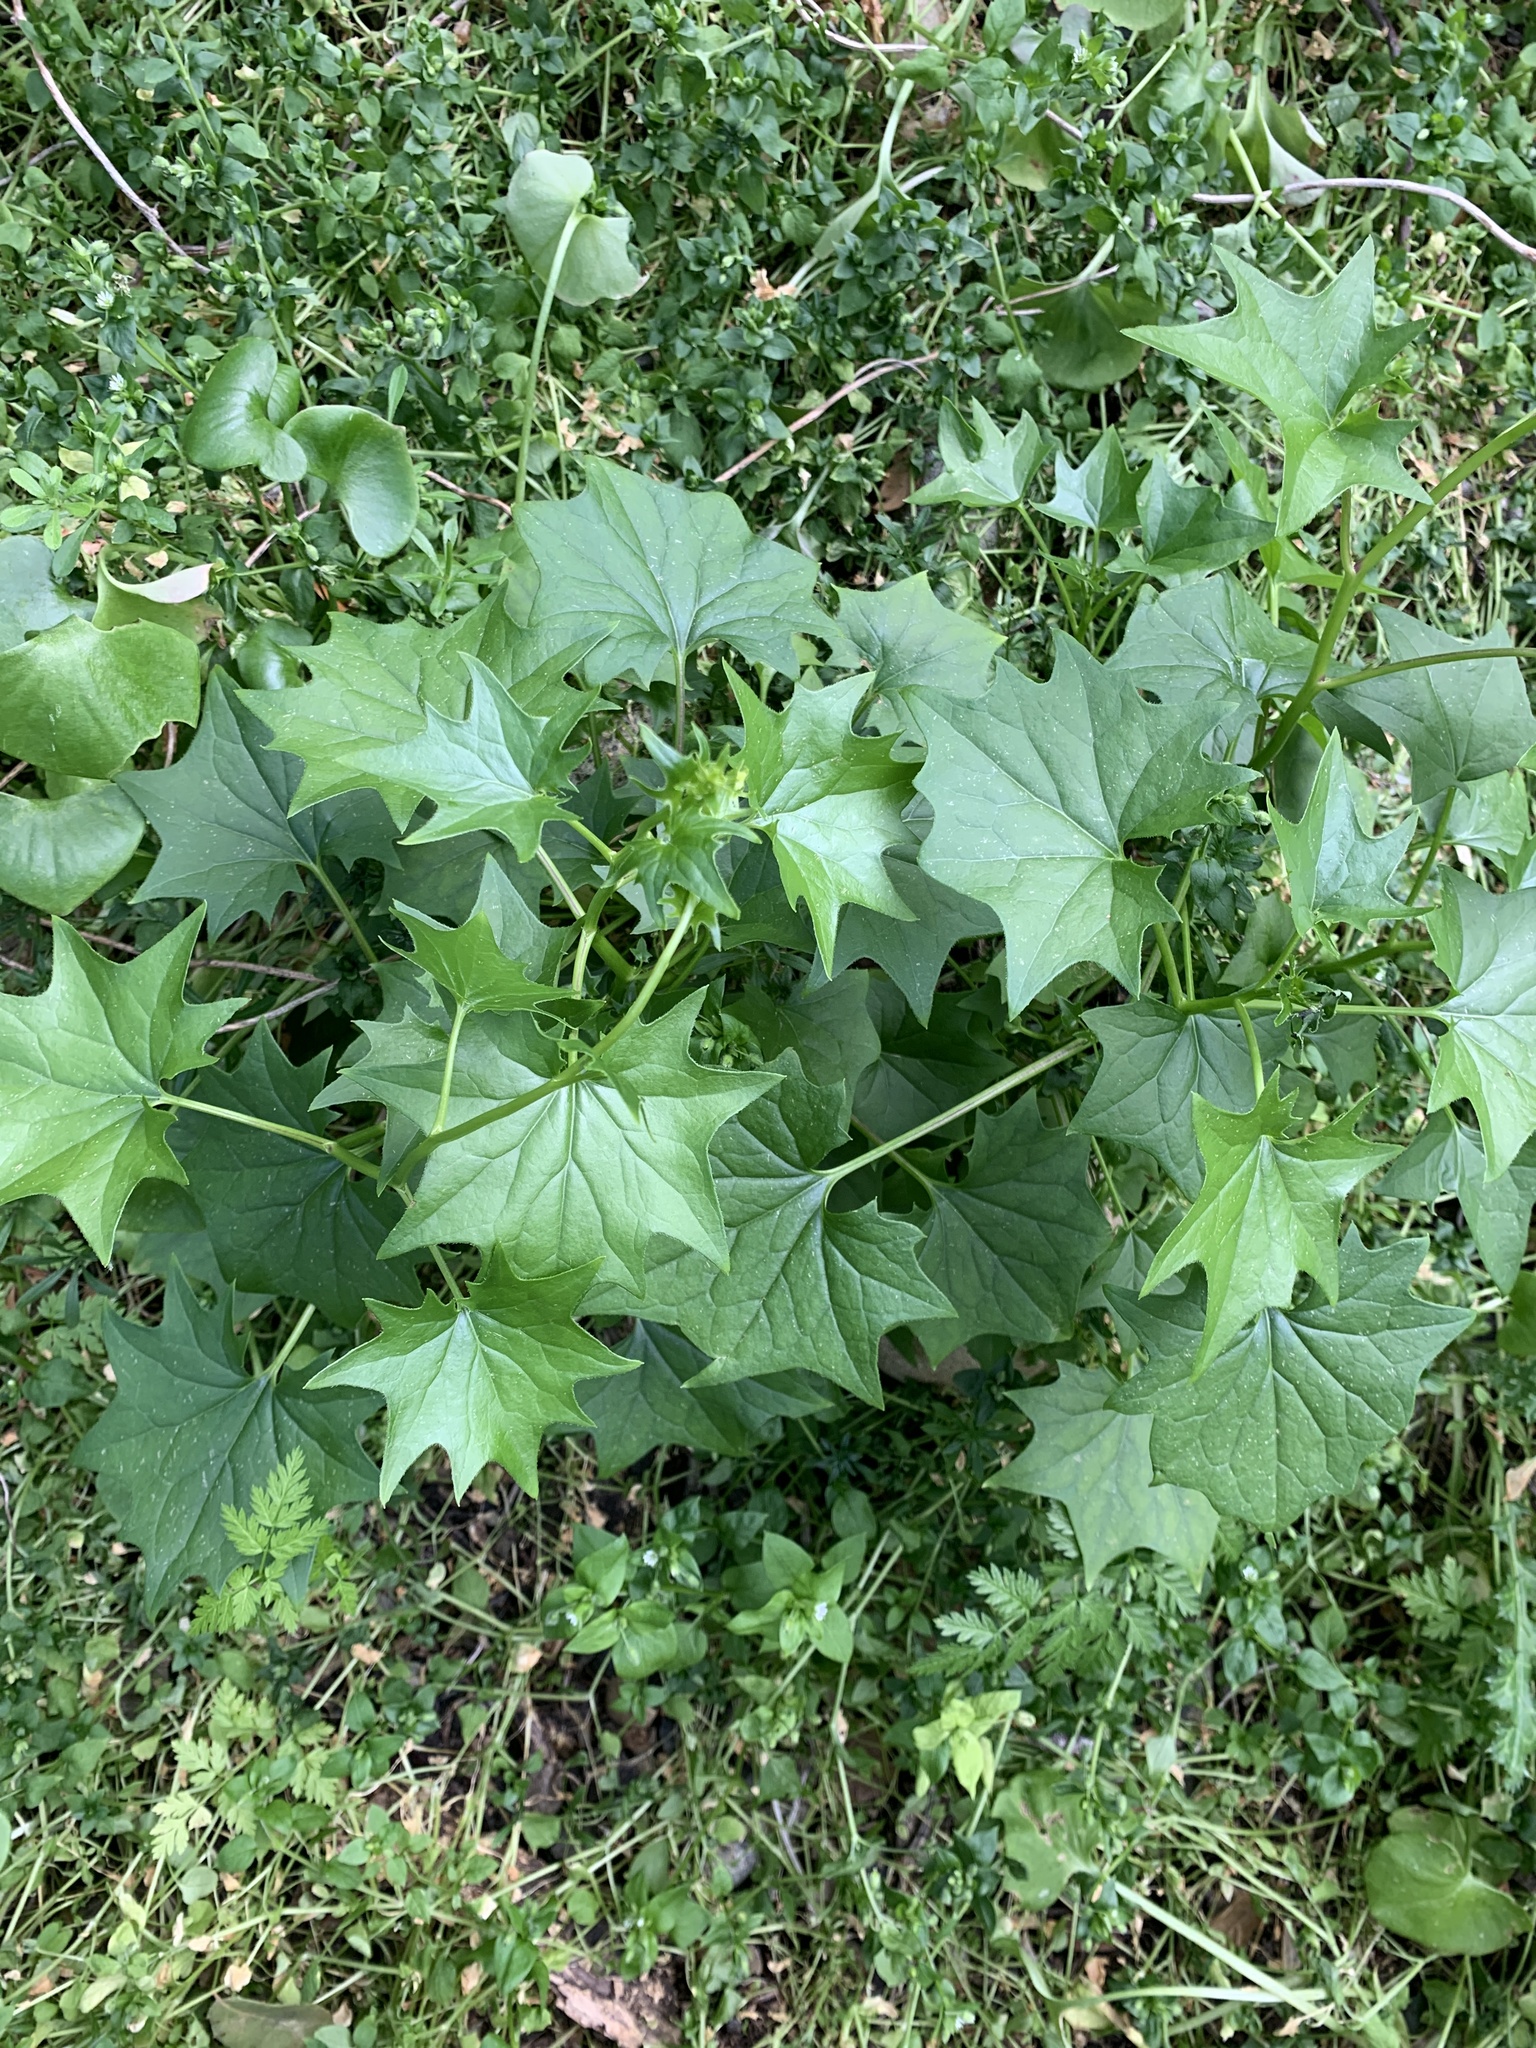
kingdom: Plantae
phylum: Tracheophyta
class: Magnoliopsida
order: Asterales
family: Asteraceae
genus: Delairea
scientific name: Delairea odorata
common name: Cape-ivy
